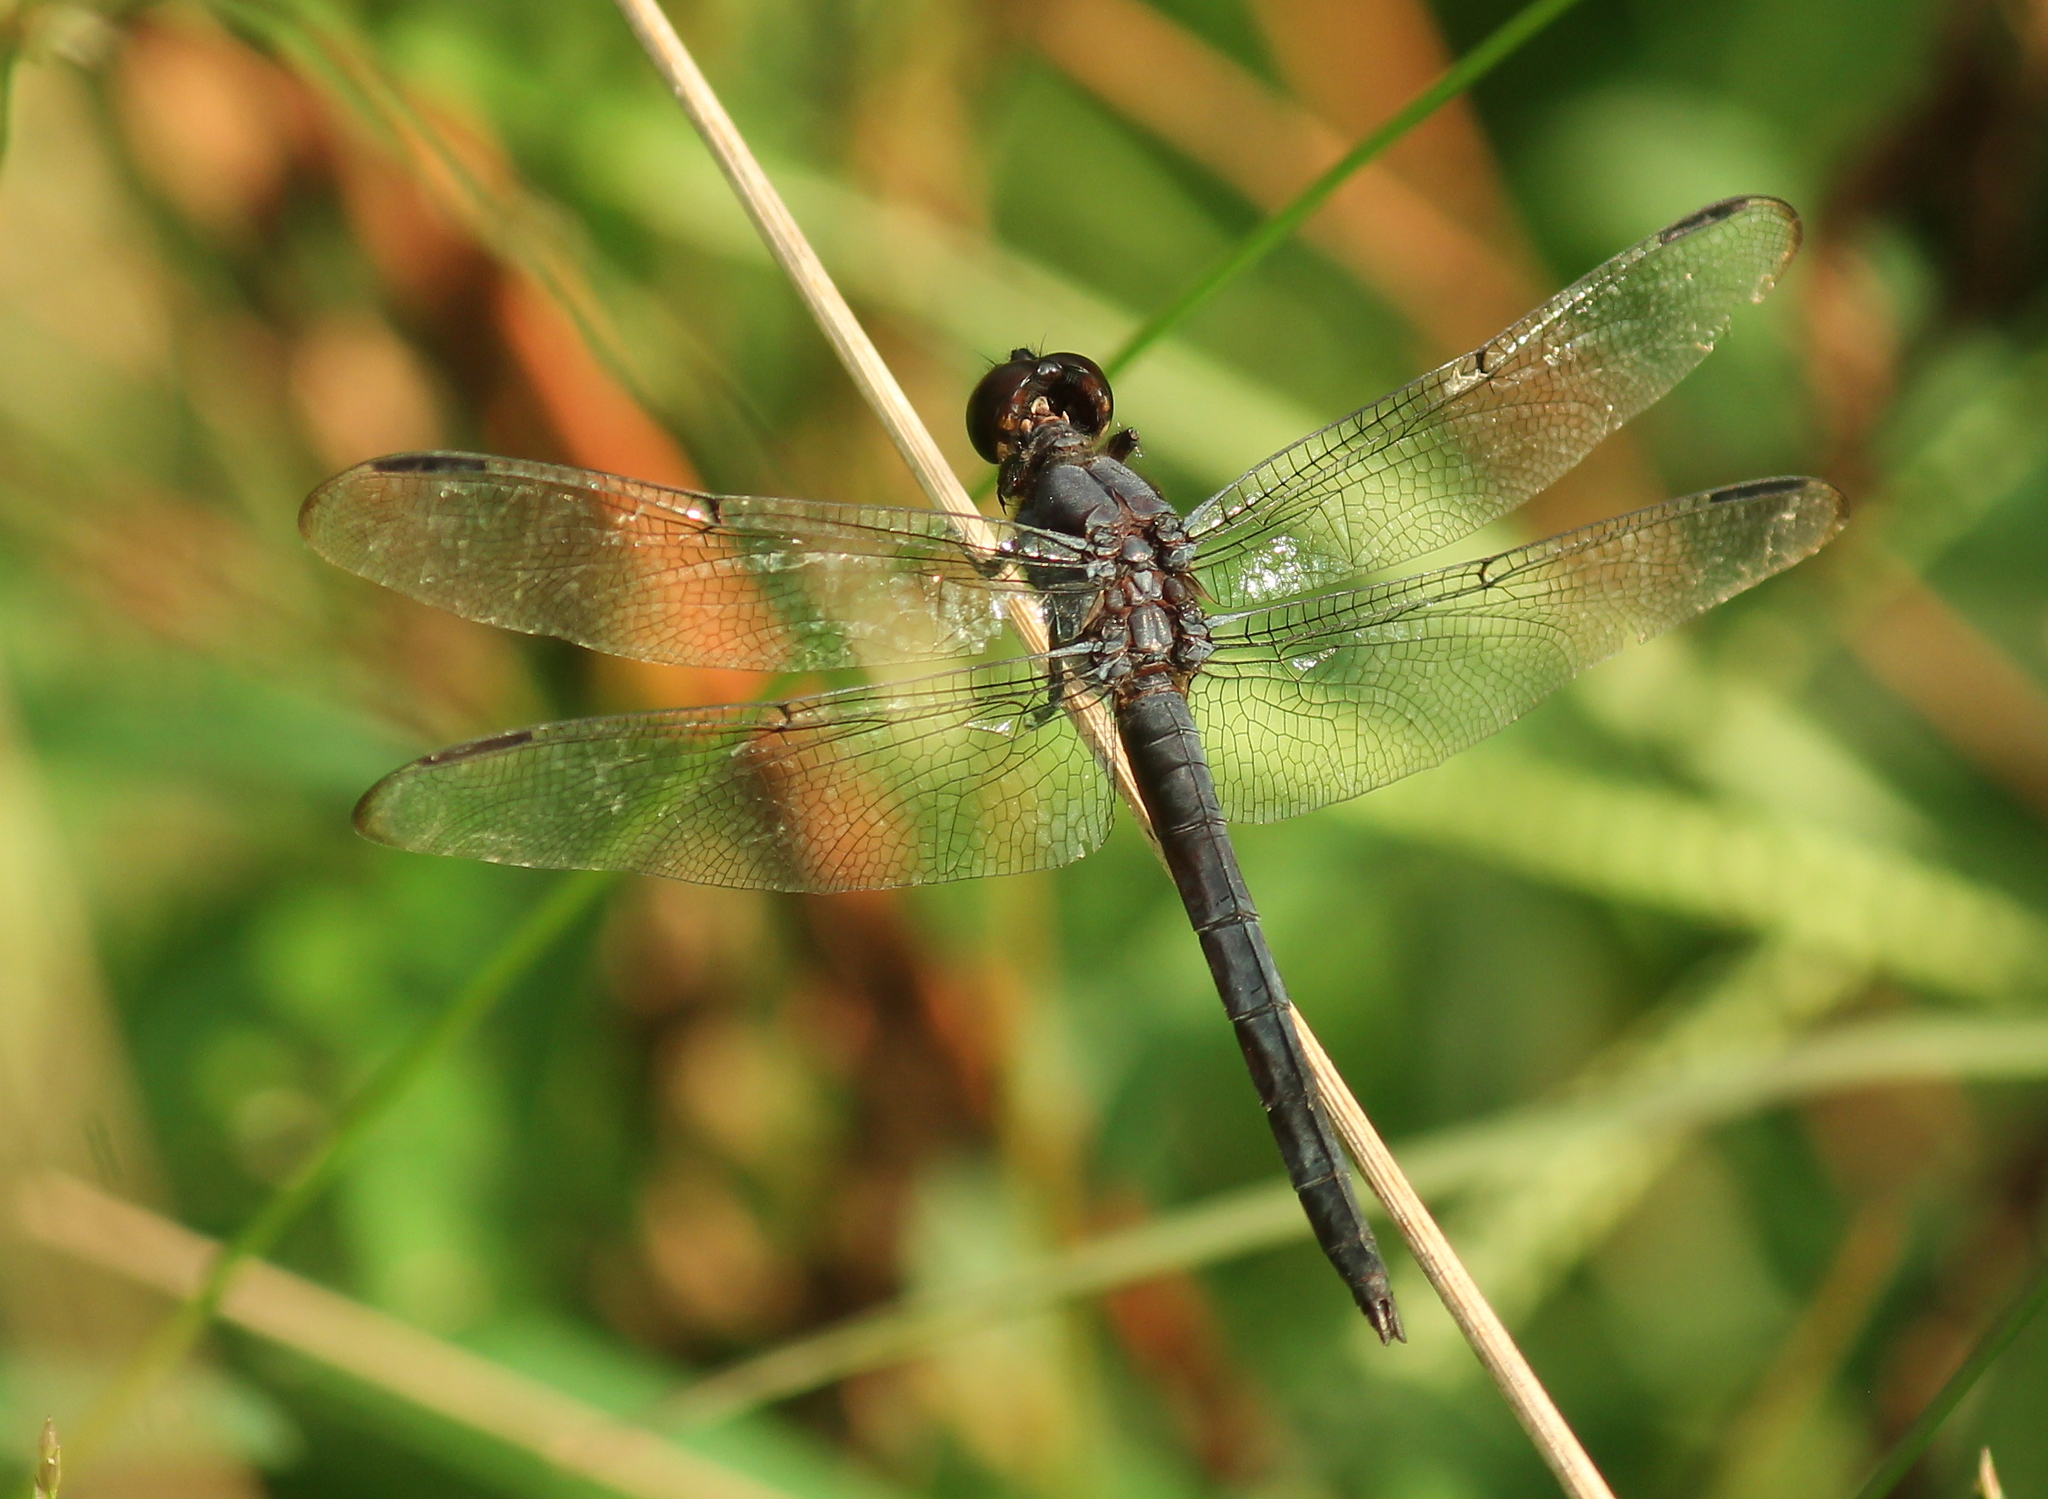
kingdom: Animalia
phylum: Arthropoda
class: Insecta
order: Odonata
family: Libellulidae
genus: Libellula
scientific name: Libellula incesta
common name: Slaty skimmer
